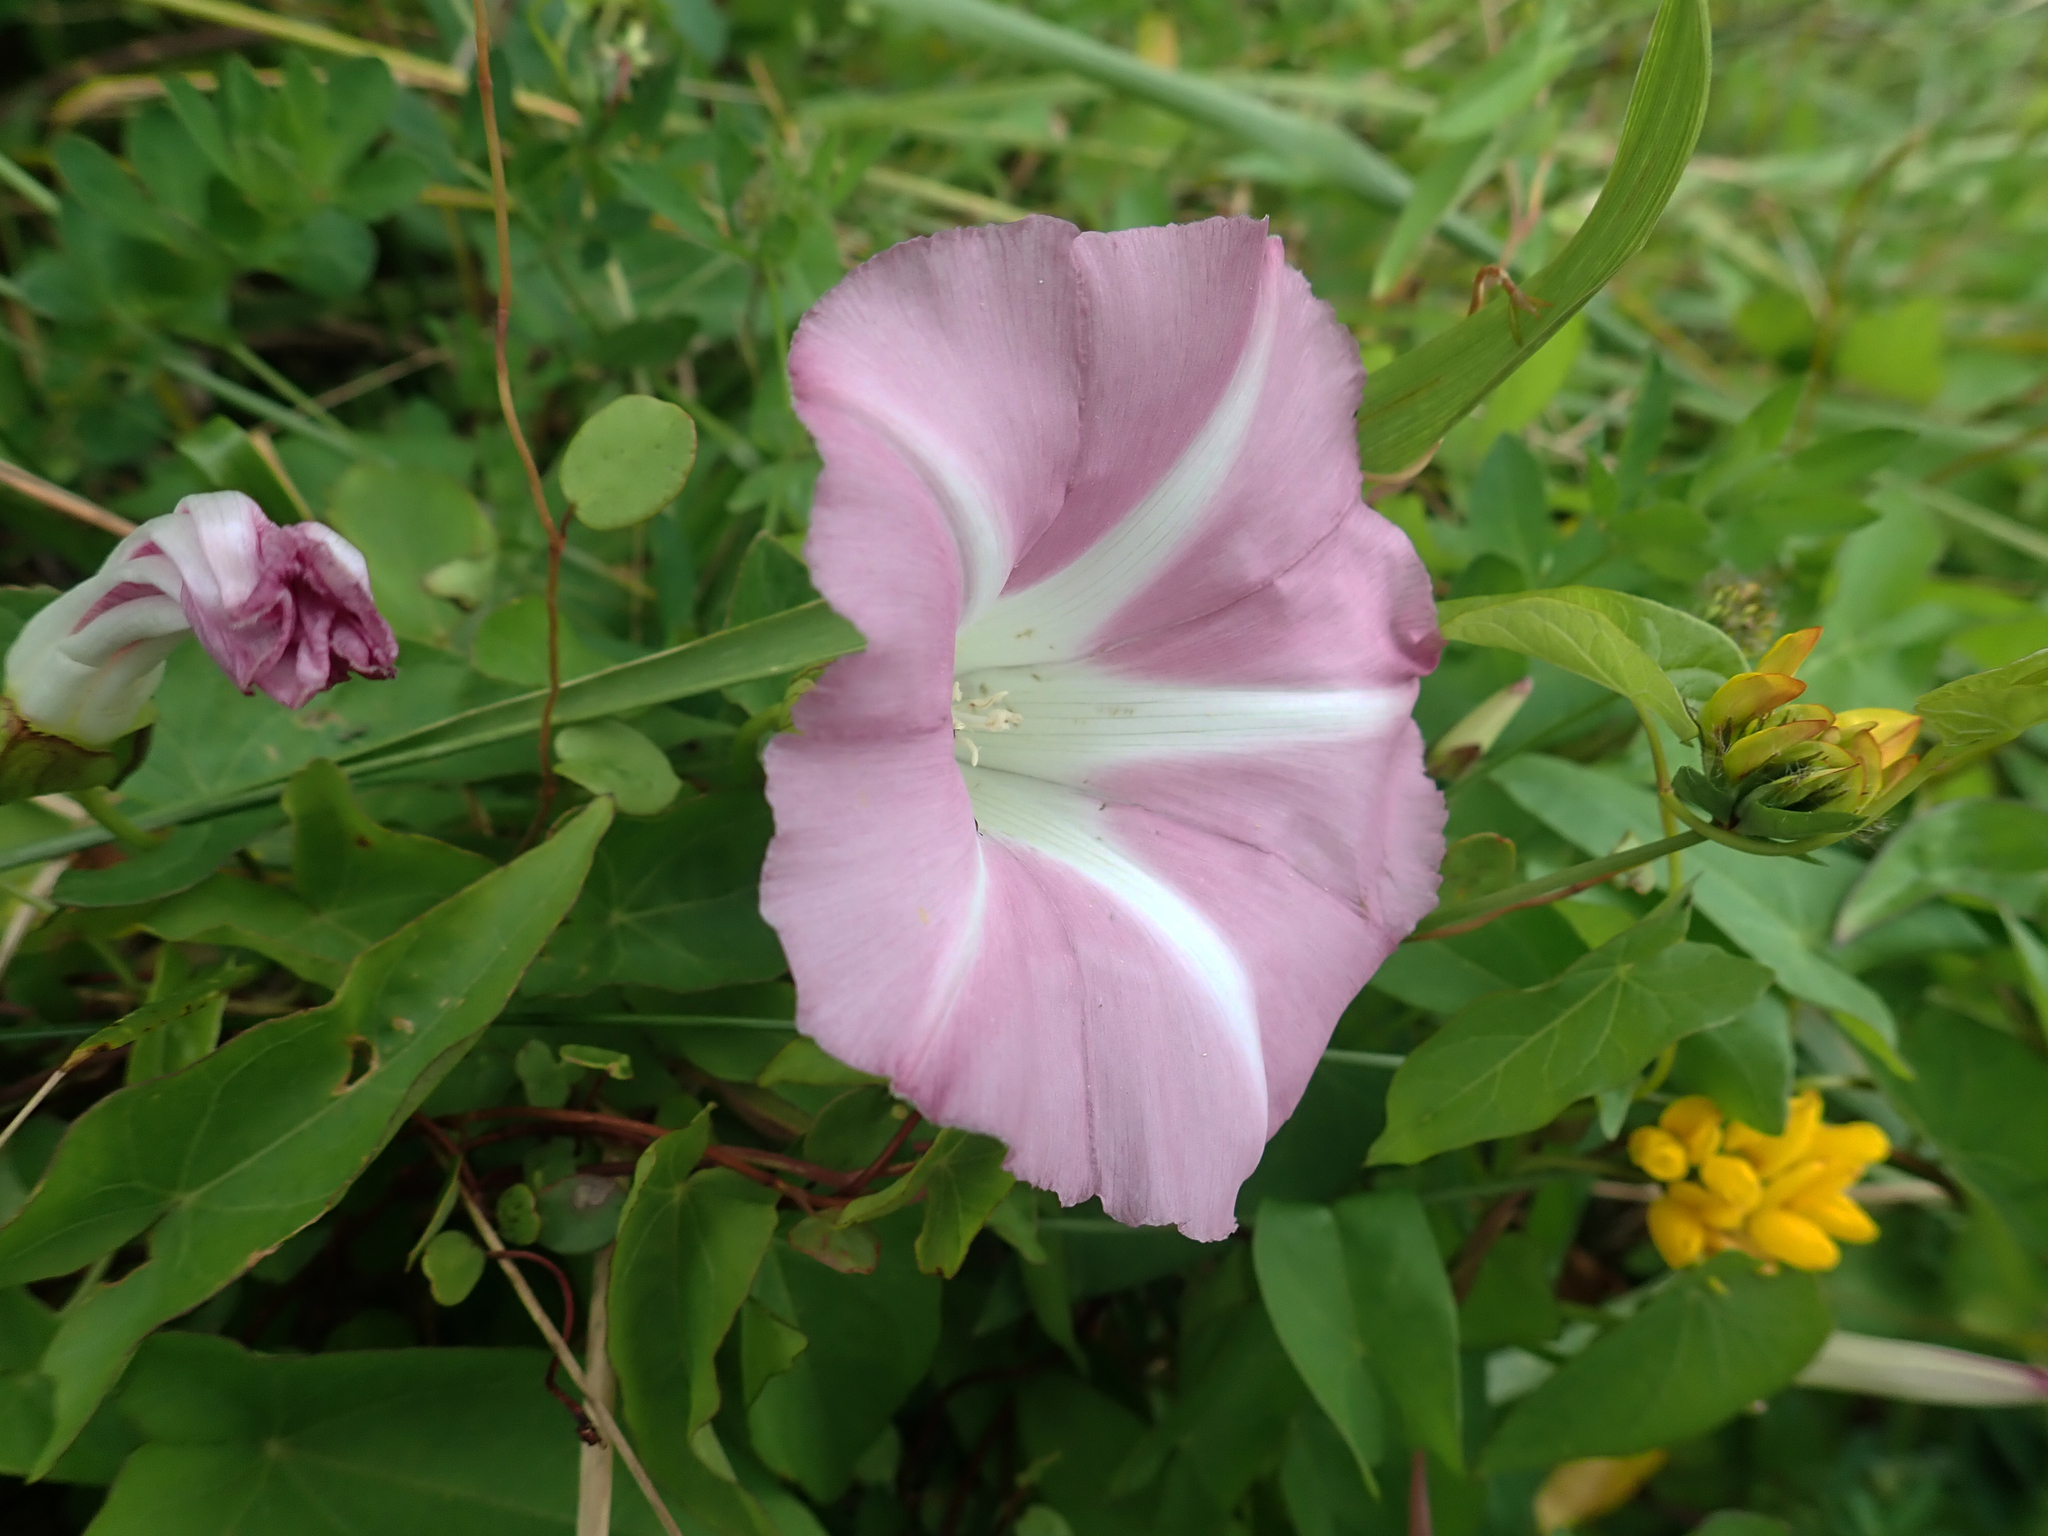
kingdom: Plantae
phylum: Tracheophyta
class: Magnoliopsida
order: Solanales
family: Convolvulaceae
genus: Calystegia
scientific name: Calystegia sepium
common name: Hedge bindweed
